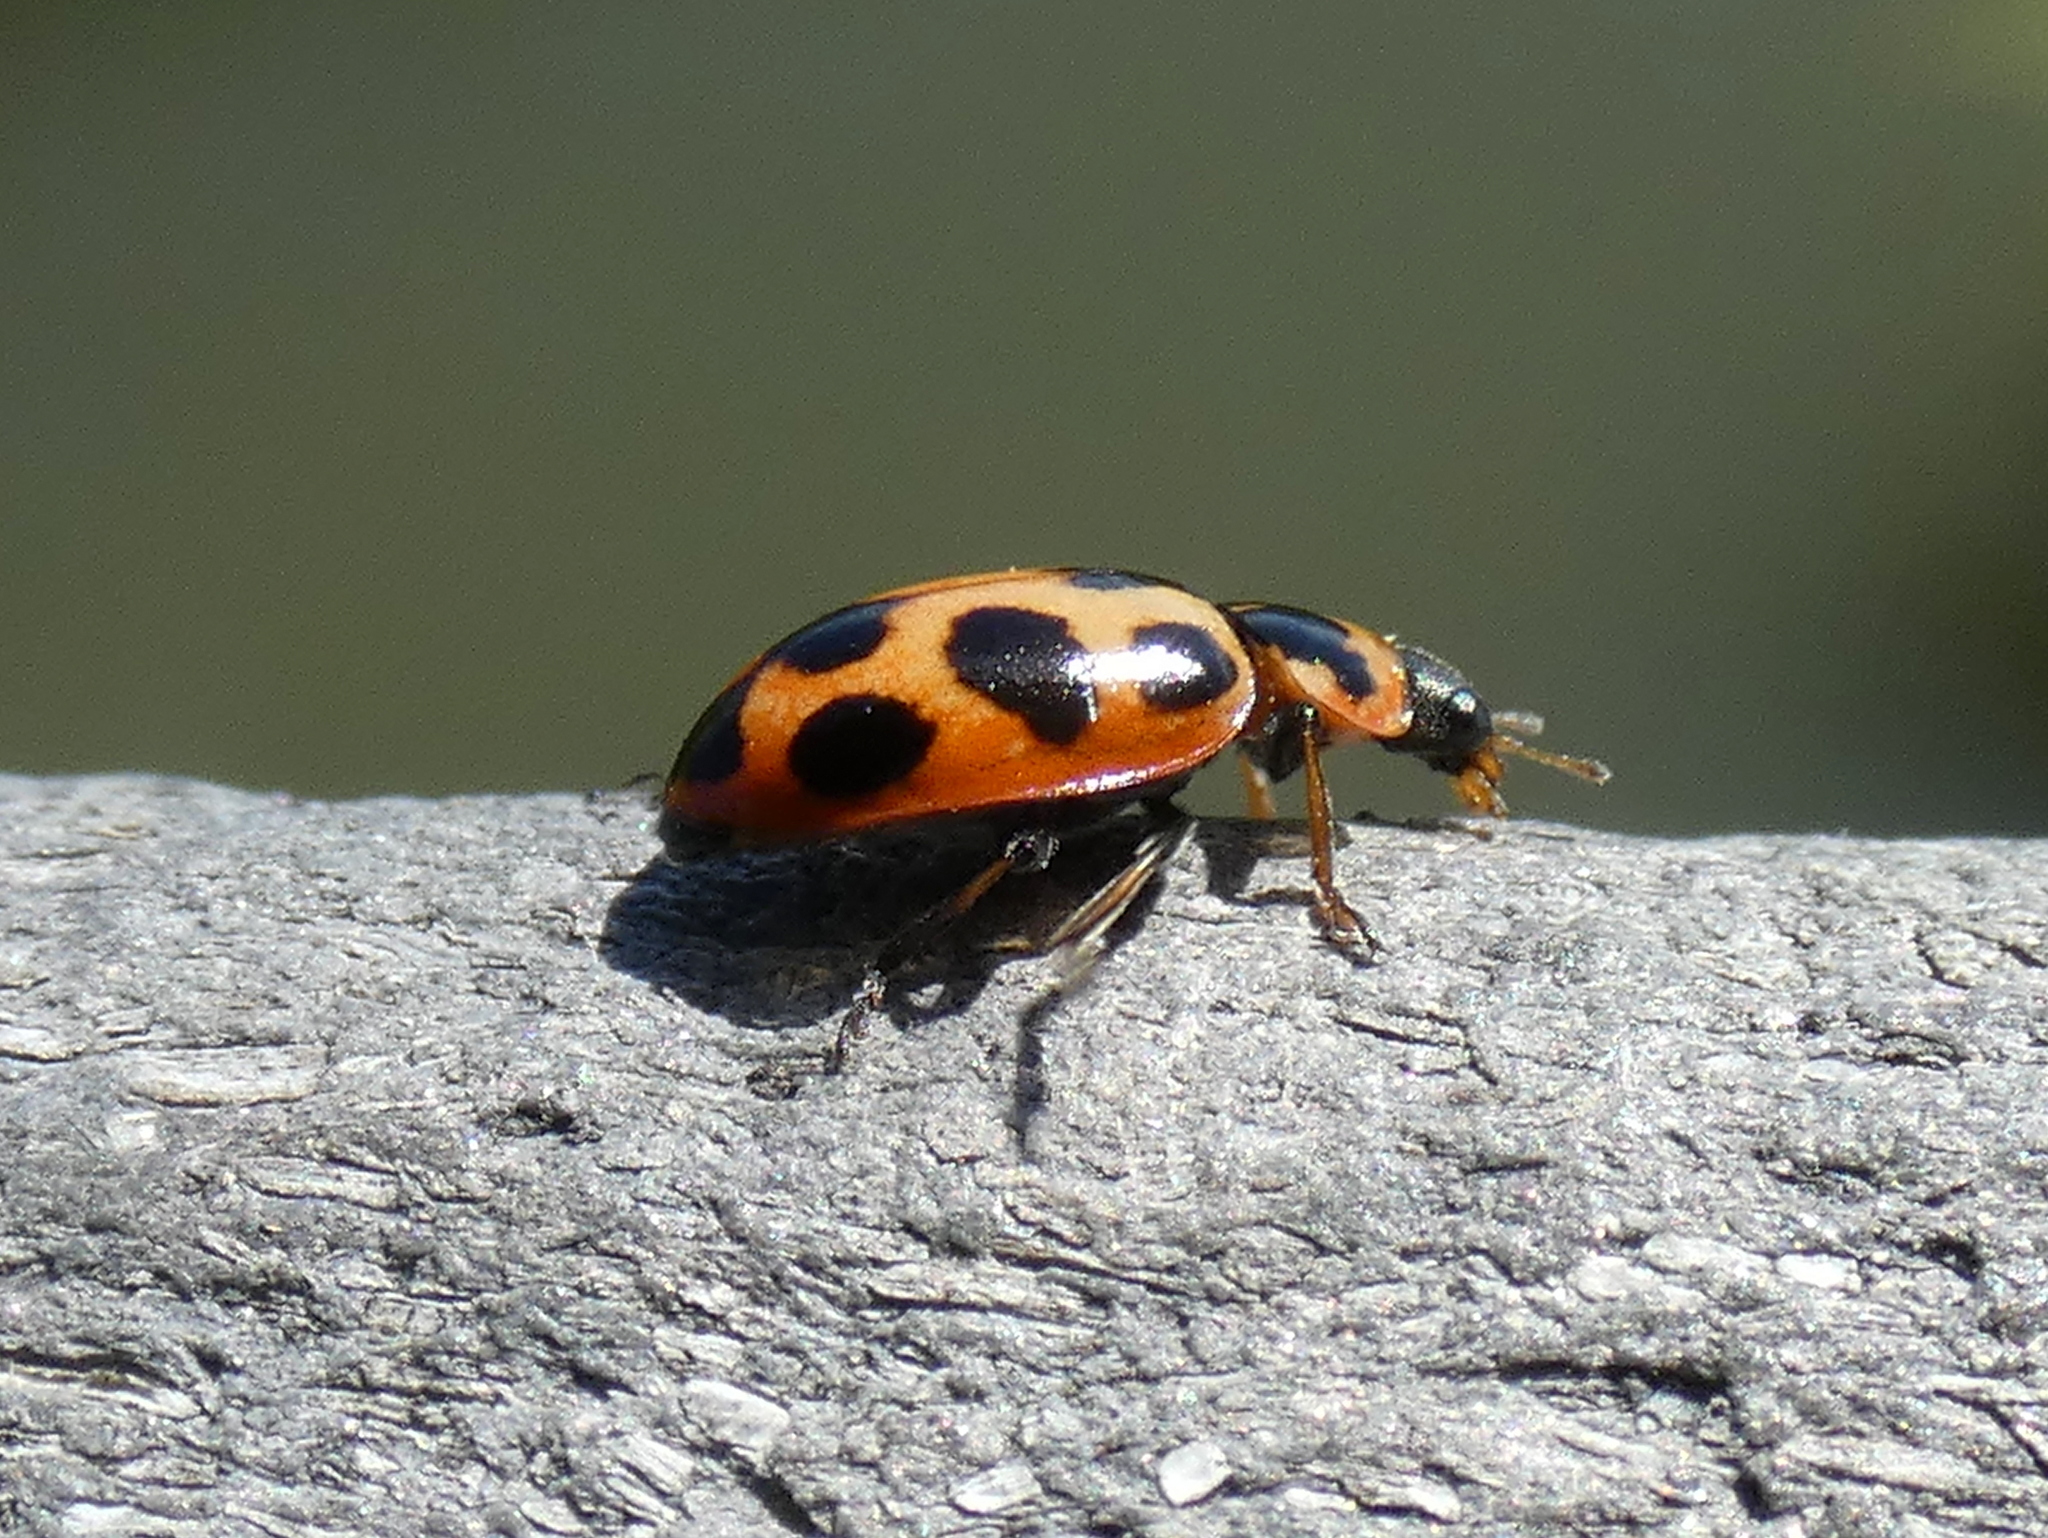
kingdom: Animalia
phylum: Arthropoda
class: Insecta
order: Coleoptera
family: Coccinellidae
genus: Naemia
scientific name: Naemia seriata
